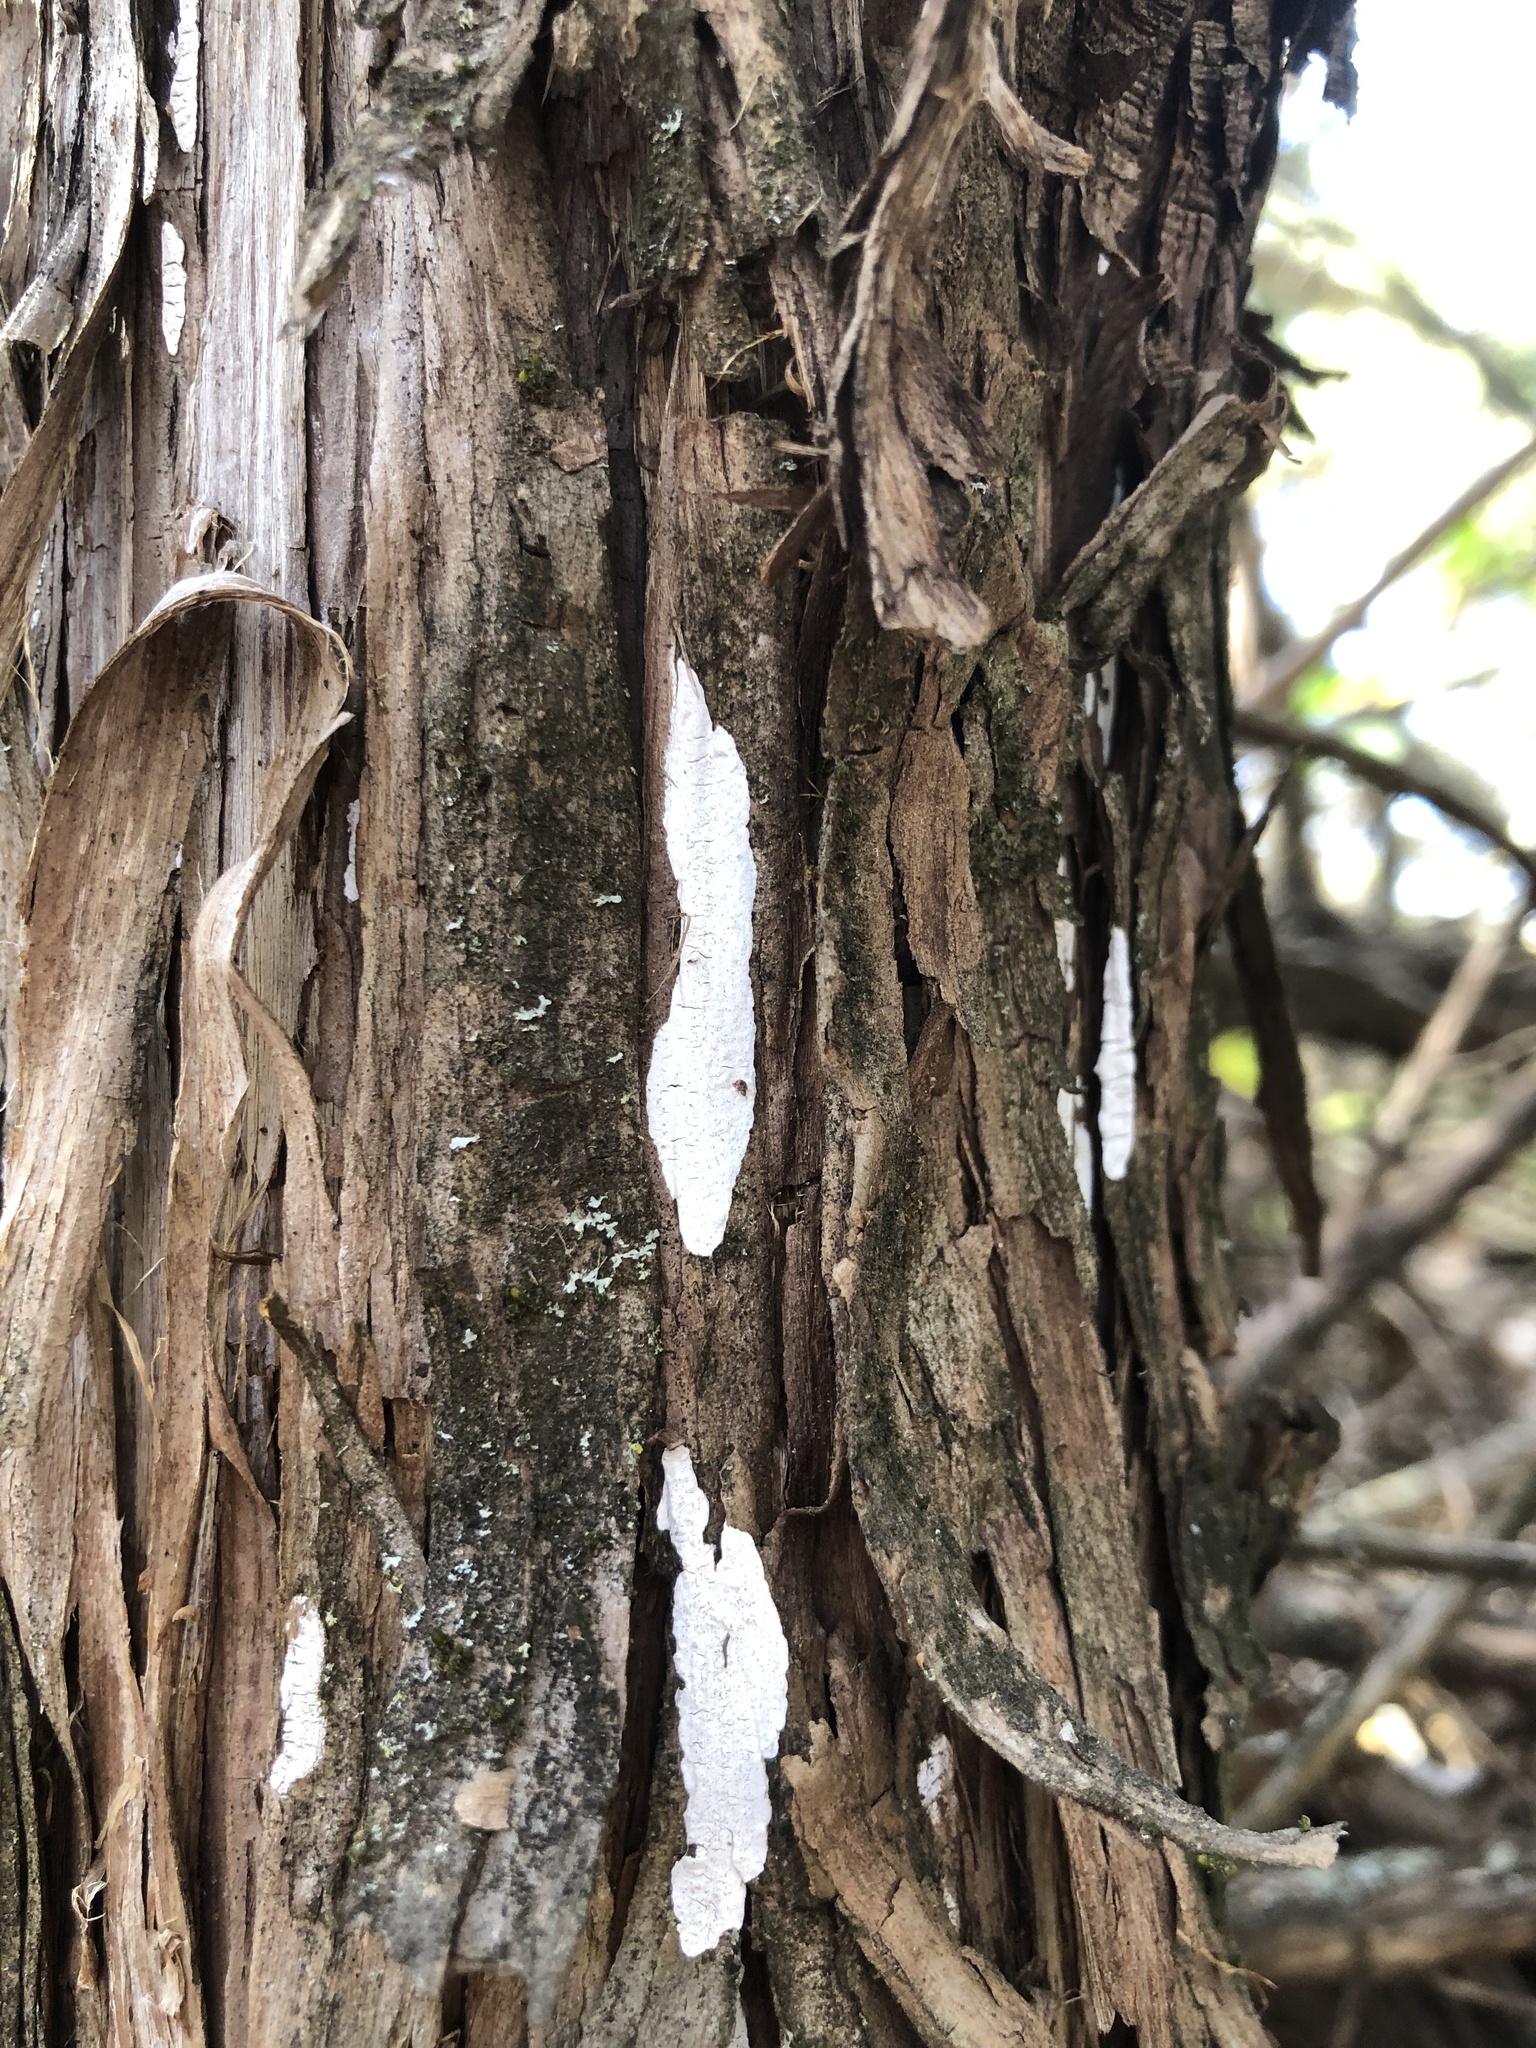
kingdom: Fungi
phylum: Basidiomycota
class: Agaricomycetes
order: Agaricales
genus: Dendrothele
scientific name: Dendrothele nivosa
